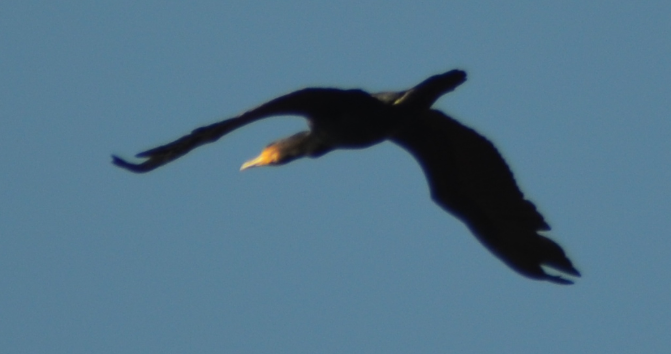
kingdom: Animalia
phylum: Chordata
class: Aves
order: Suliformes
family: Phalacrocoracidae
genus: Phalacrocorax
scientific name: Phalacrocorax carbo
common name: Great cormorant
